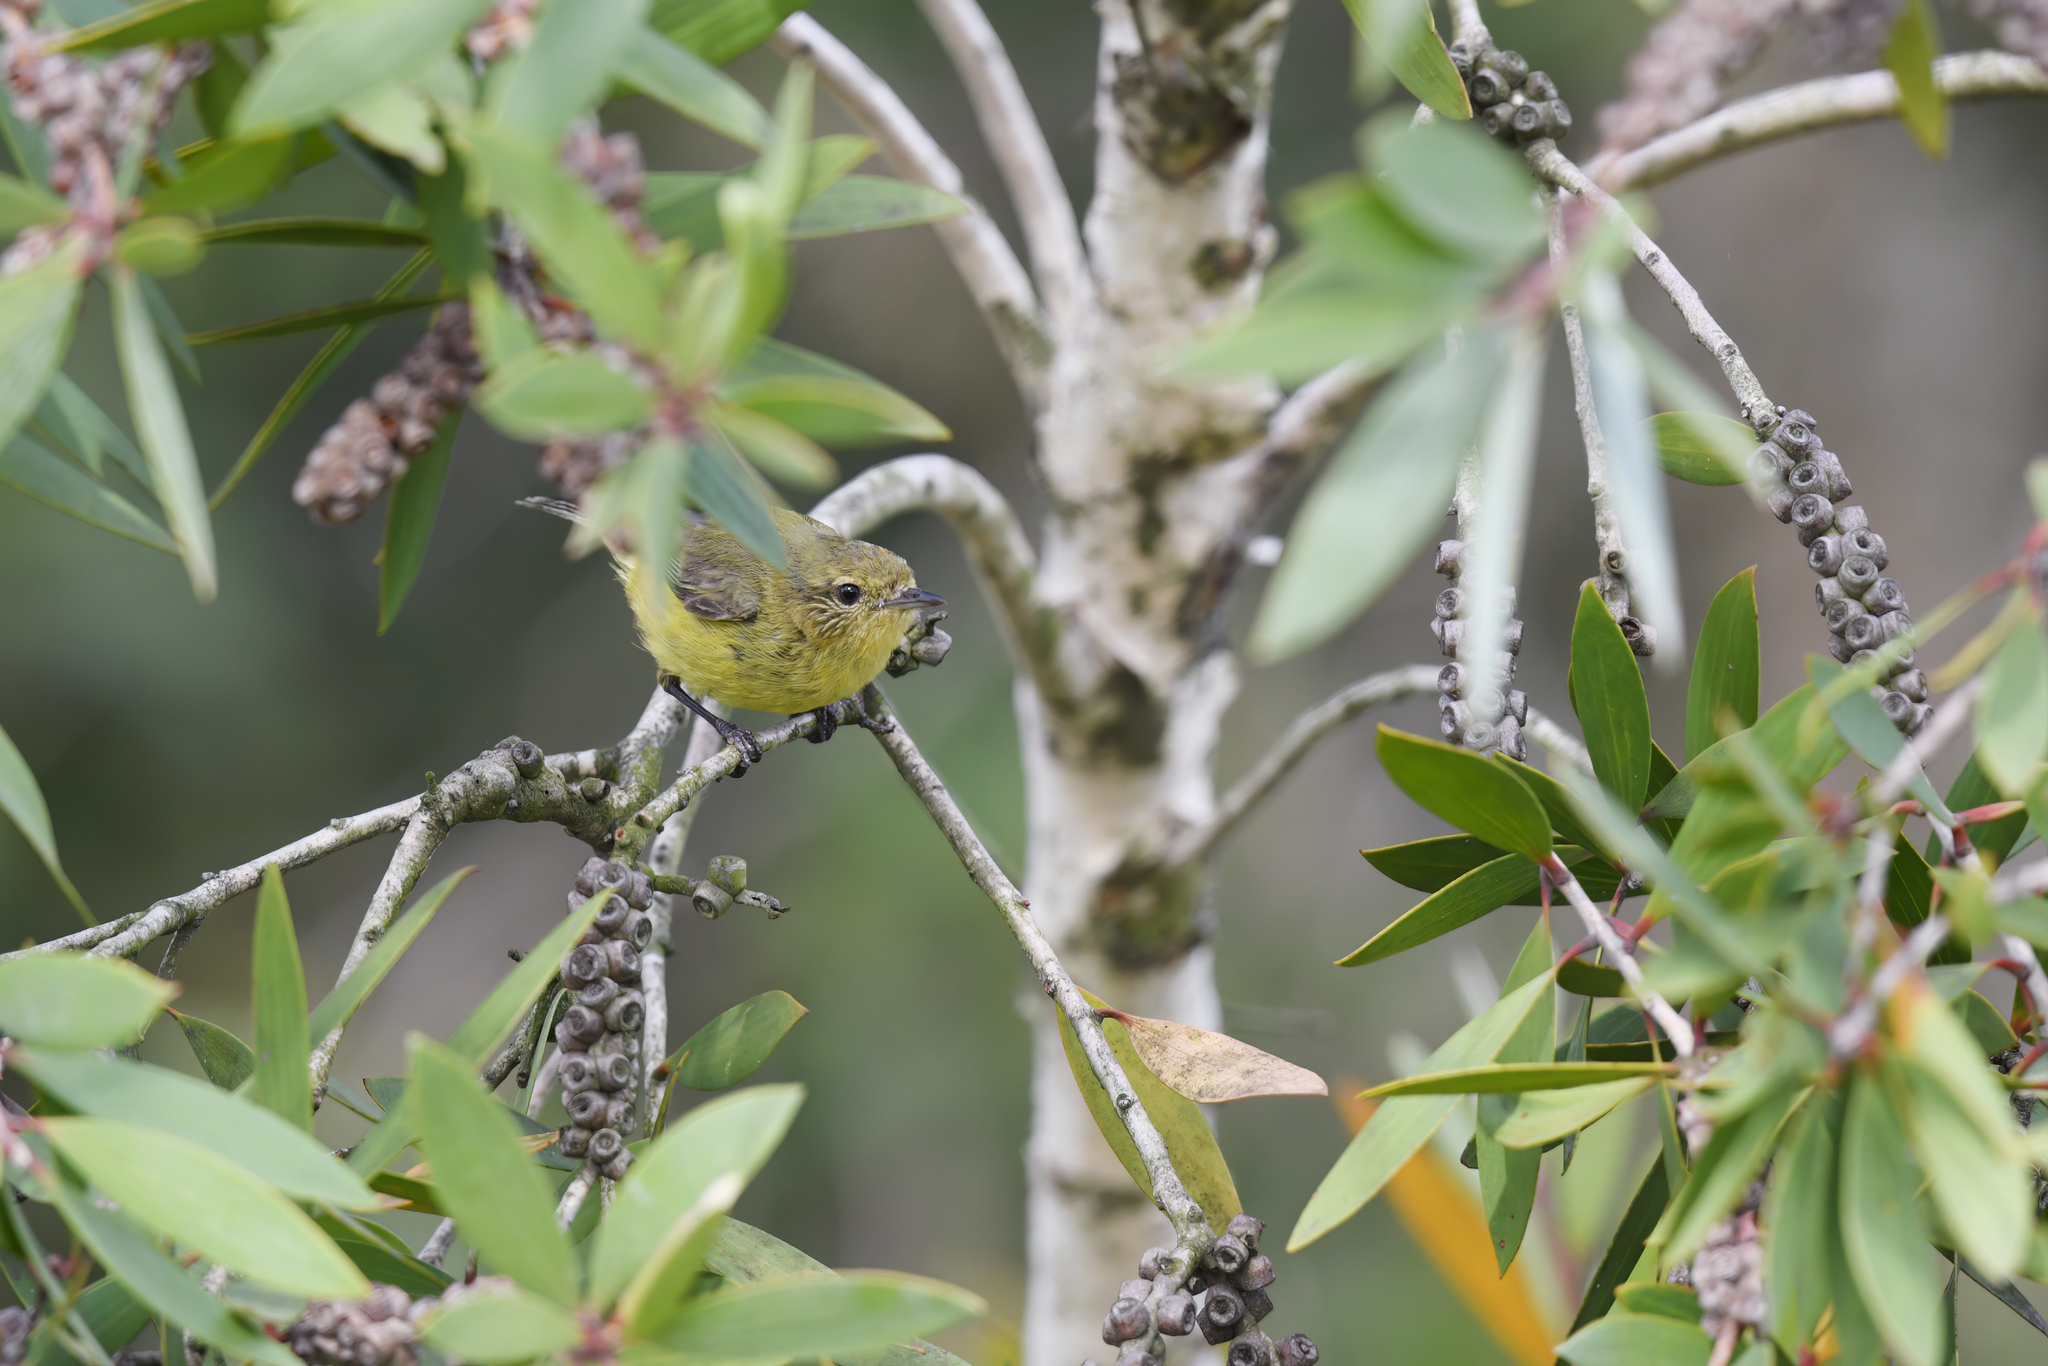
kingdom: Animalia
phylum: Chordata
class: Aves
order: Passeriformes
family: Acanthizidae
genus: Acanthiza
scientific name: Acanthiza nana
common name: Yellow thornbill
